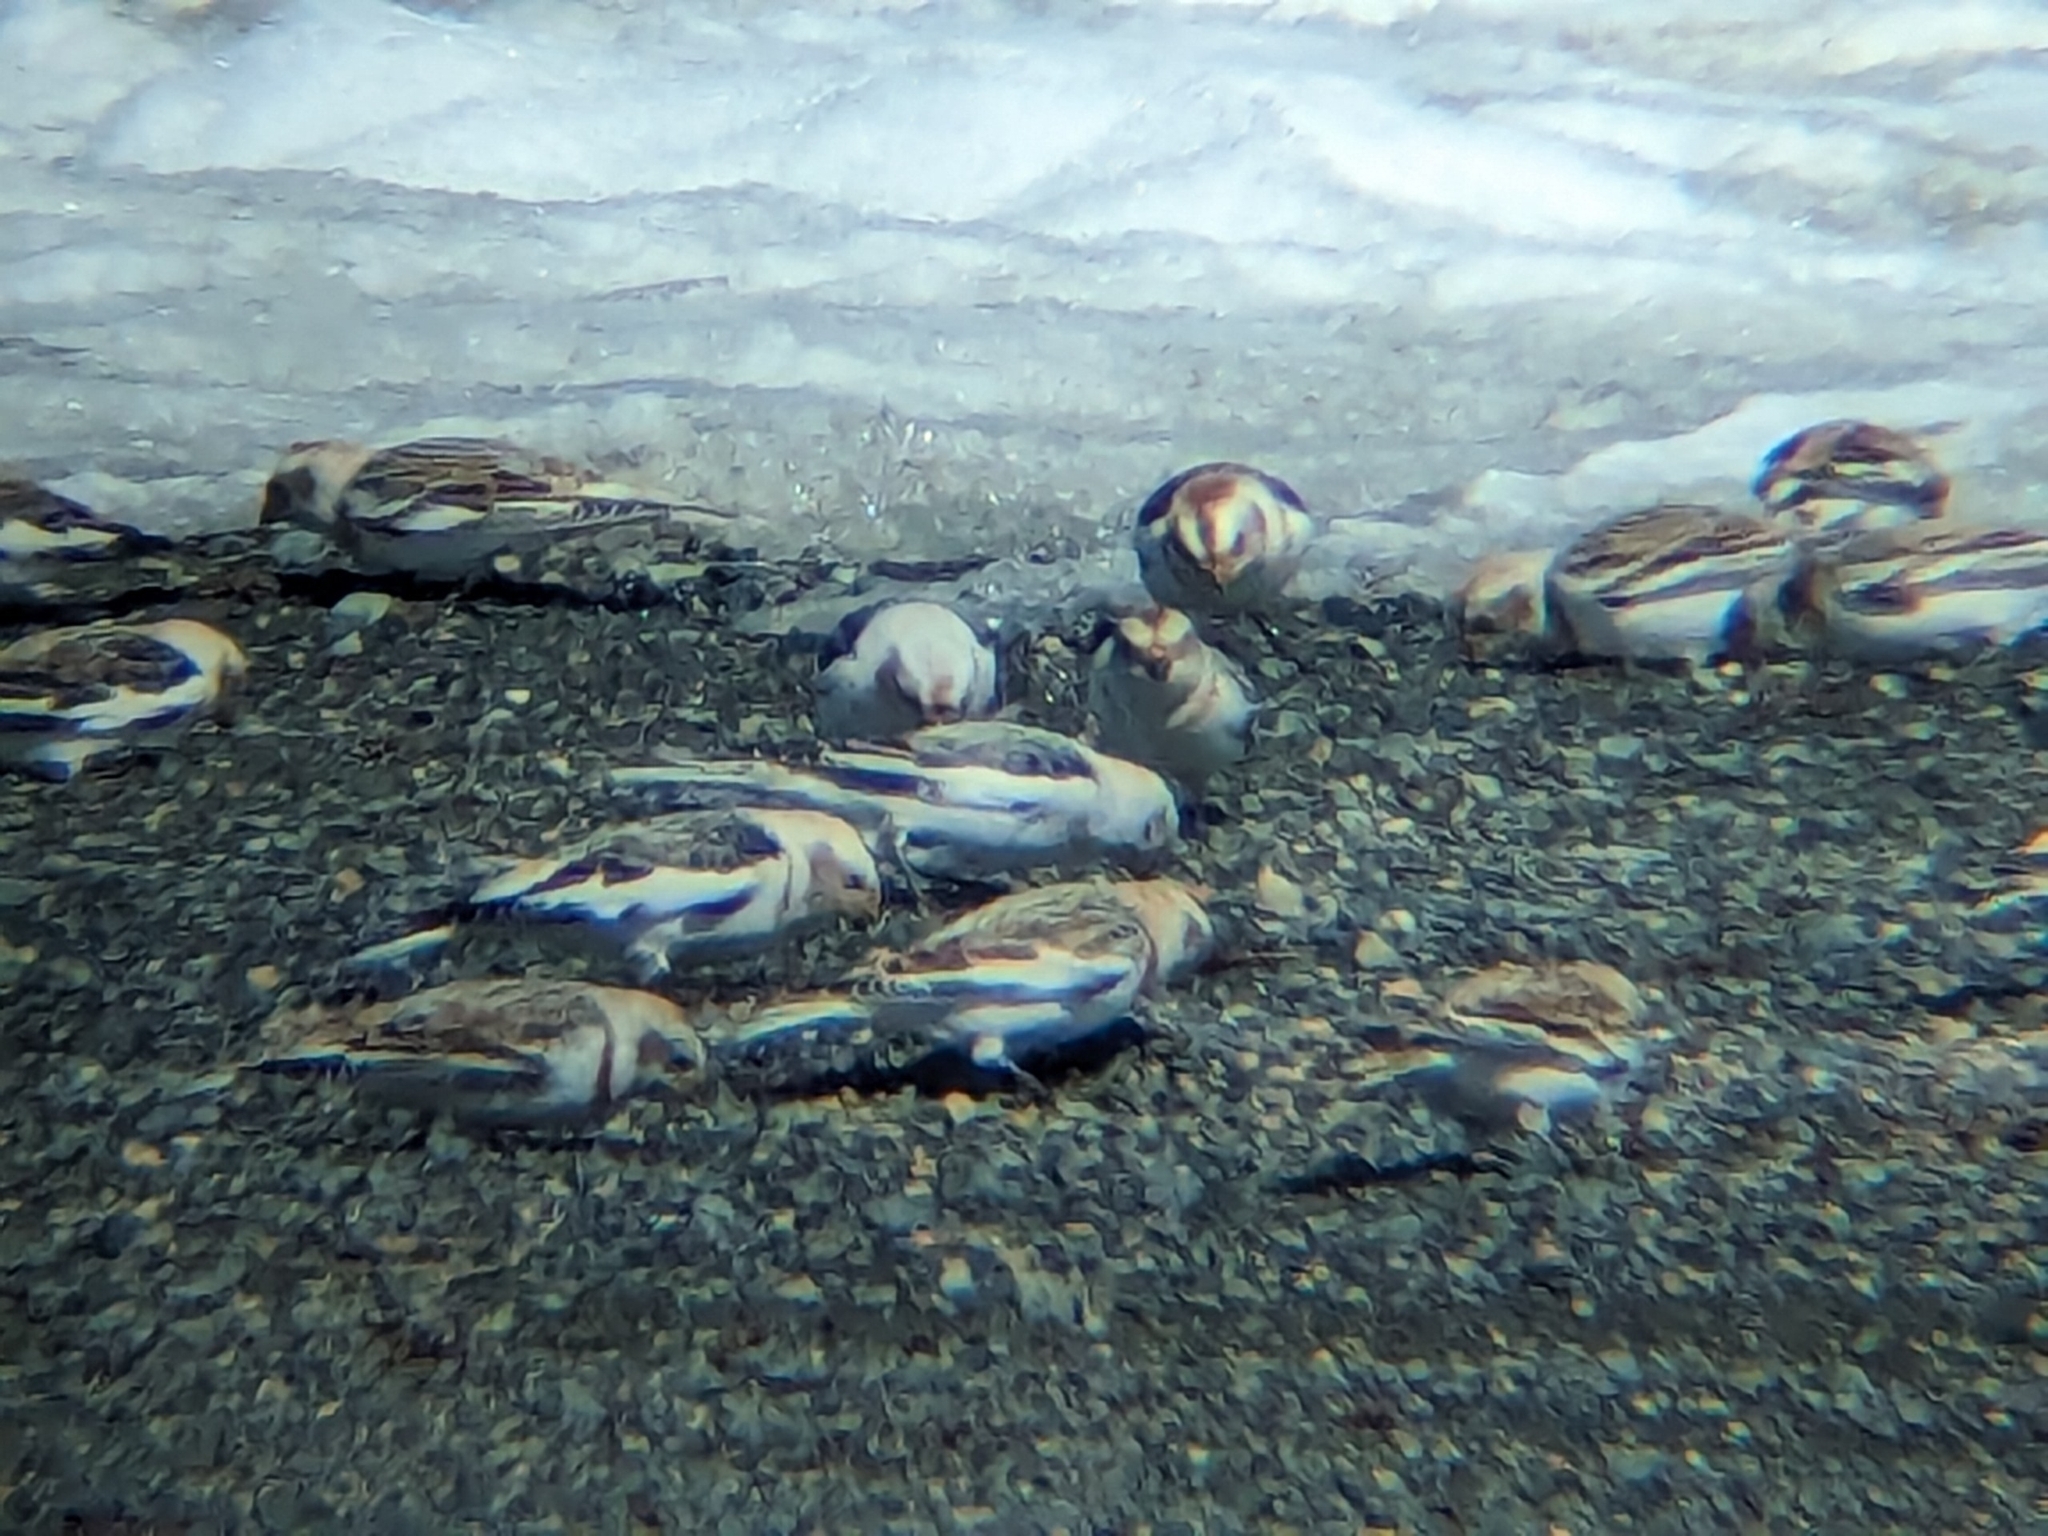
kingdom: Animalia
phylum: Chordata
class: Aves
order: Passeriformes
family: Calcariidae
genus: Plectrophenax
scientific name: Plectrophenax nivalis
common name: Snow bunting
